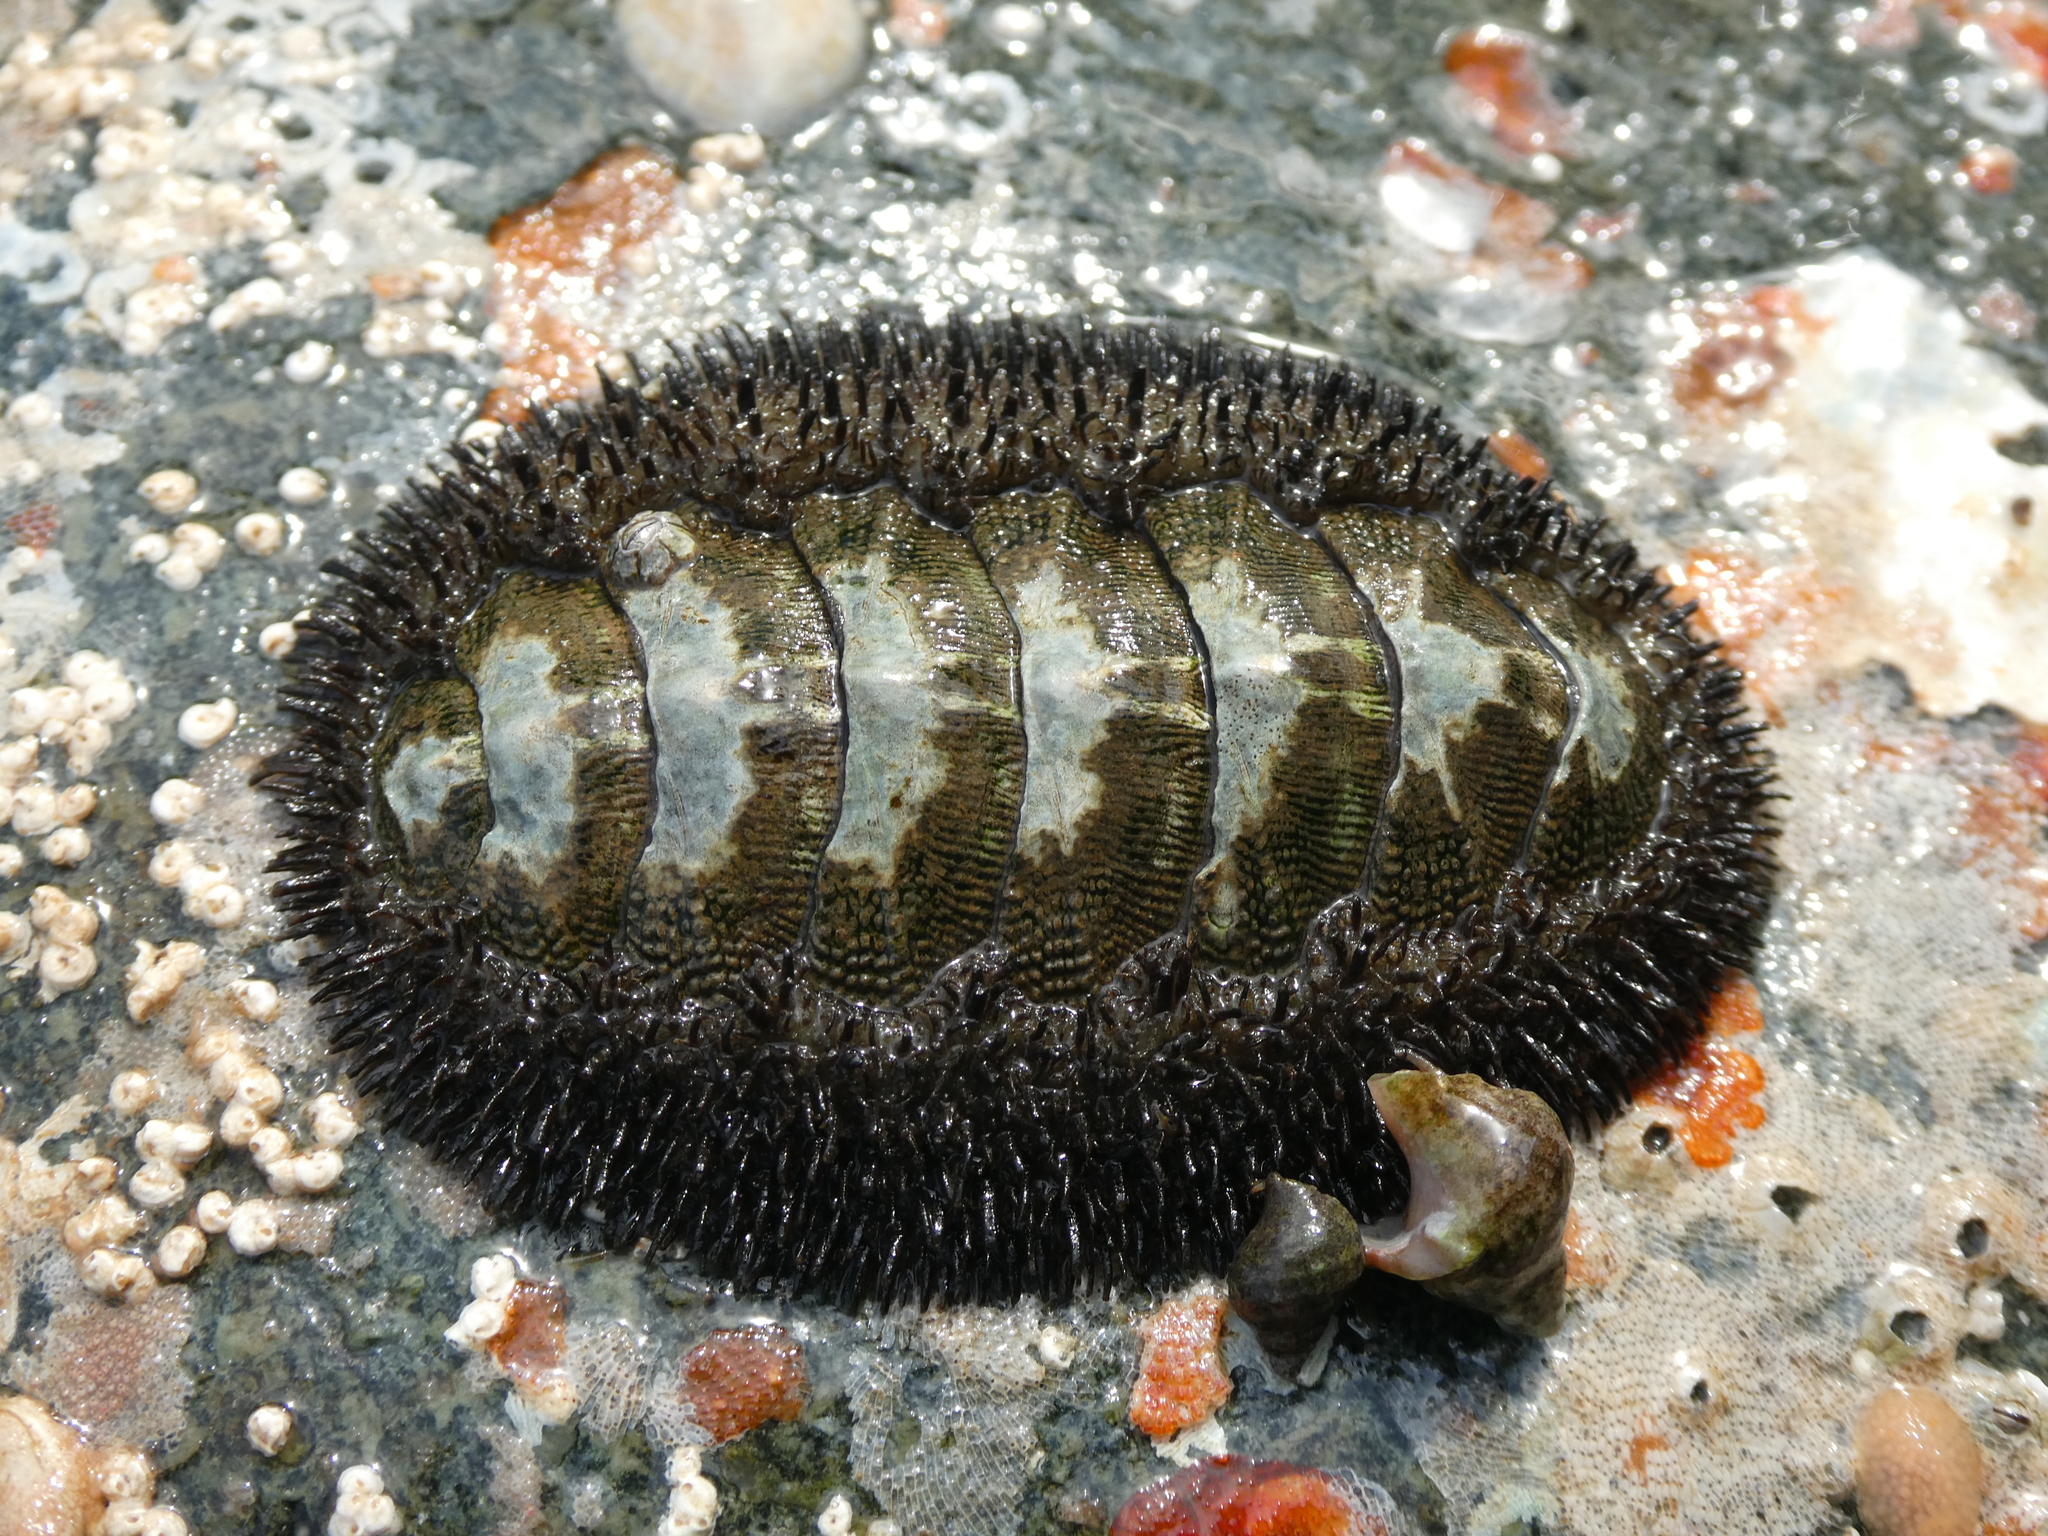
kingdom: Animalia
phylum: Mollusca
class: Polyplacophora
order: Chitonida
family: Mopaliidae
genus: Mopalia
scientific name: Mopalia muscosa
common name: Mossy chiton
